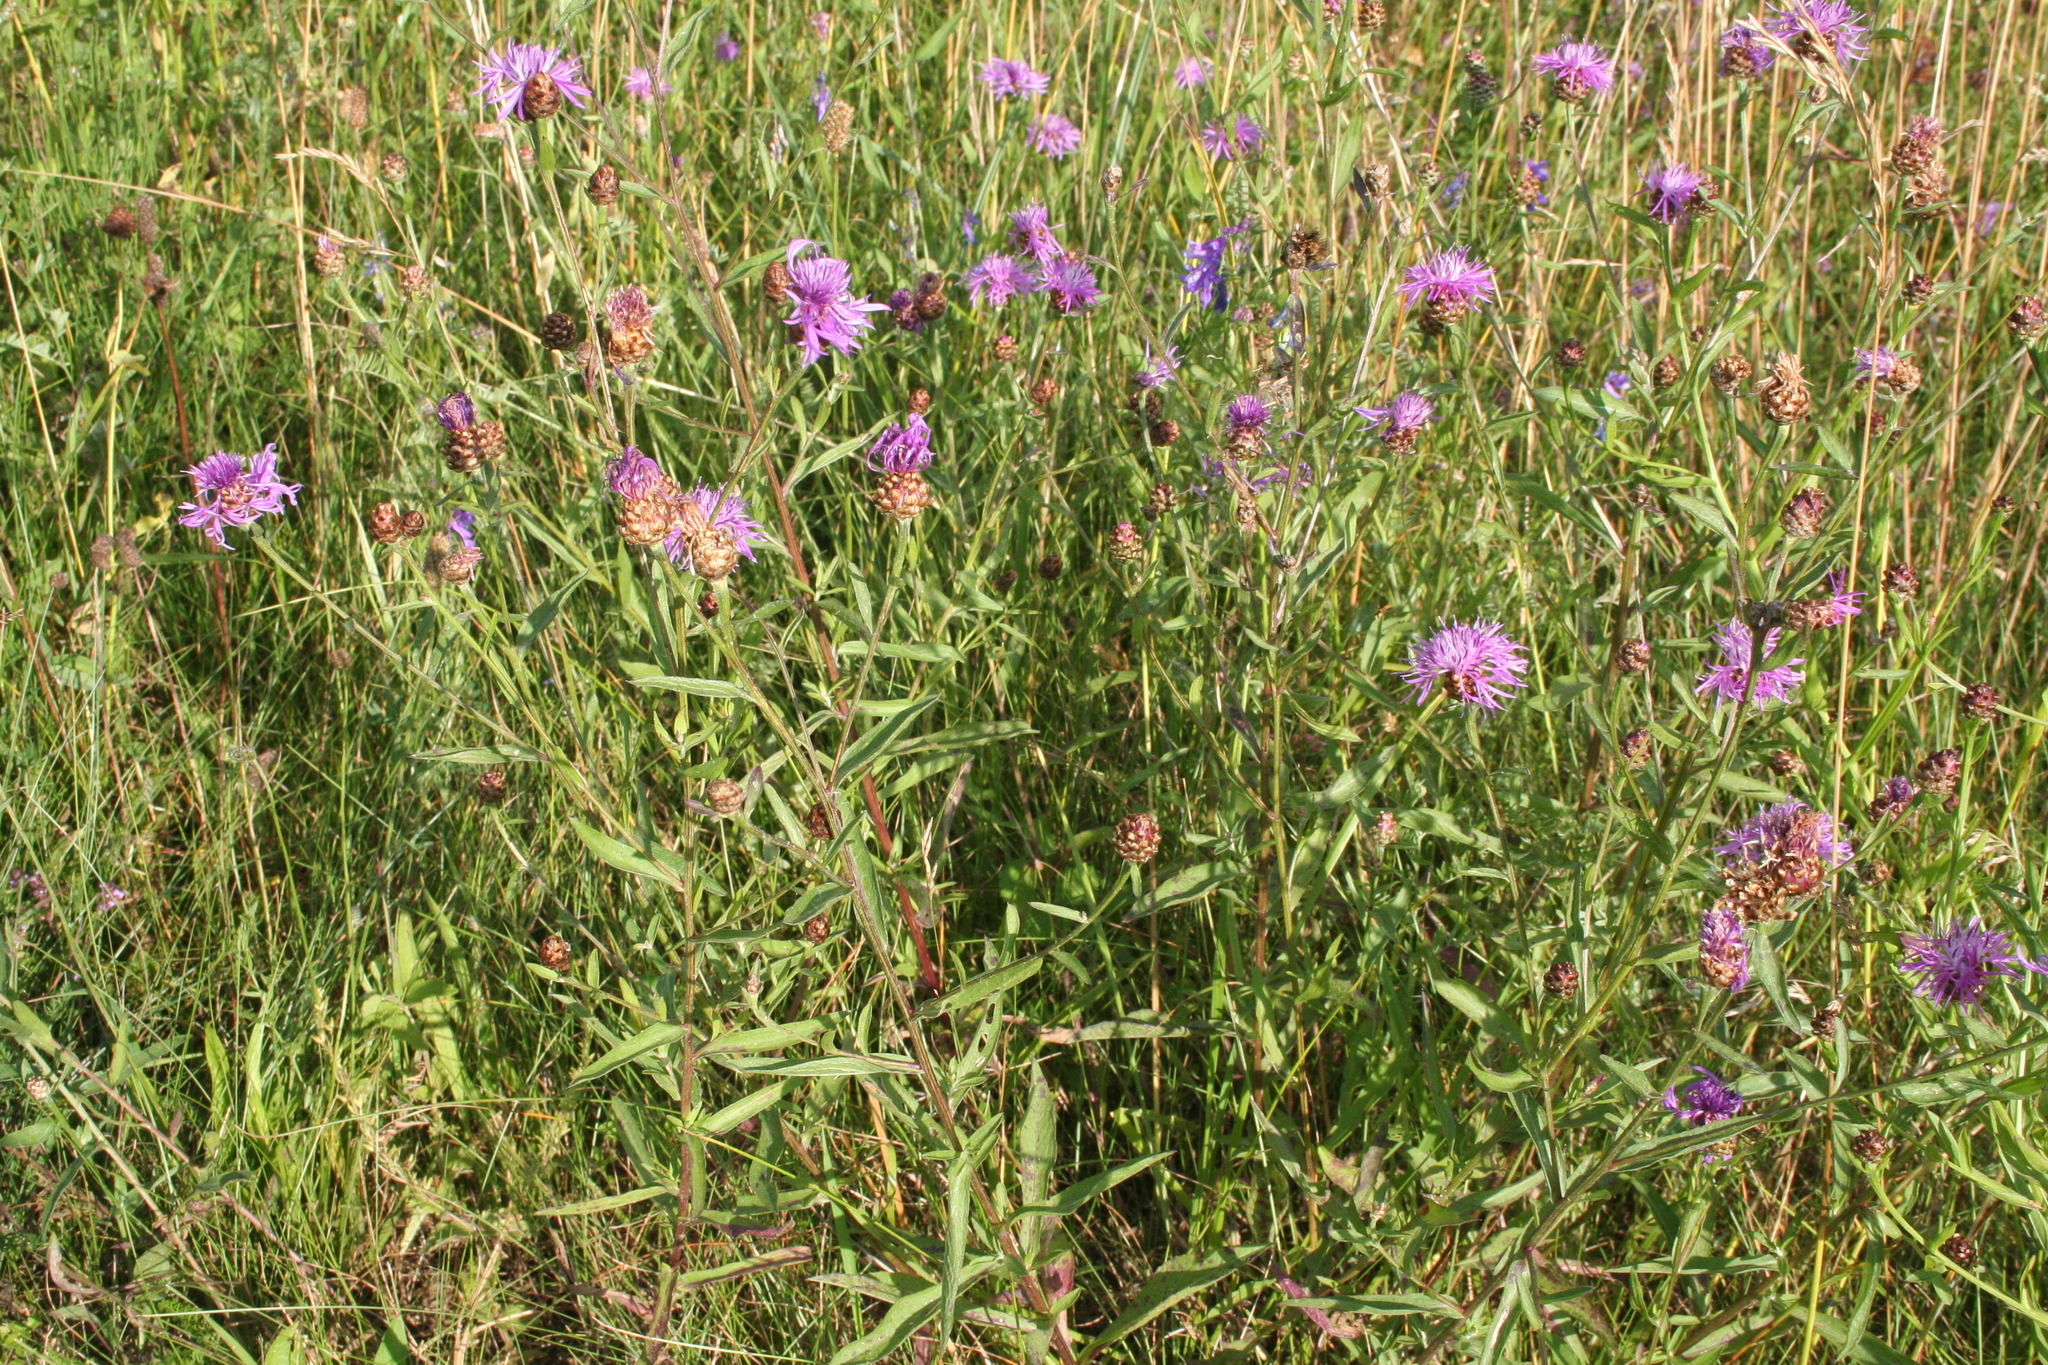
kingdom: Plantae
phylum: Tracheophyta
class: Magnoliopsida
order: Asterales
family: Asteraceae
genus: Centaurea
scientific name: Centaurea jacea
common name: Brown knapweed
